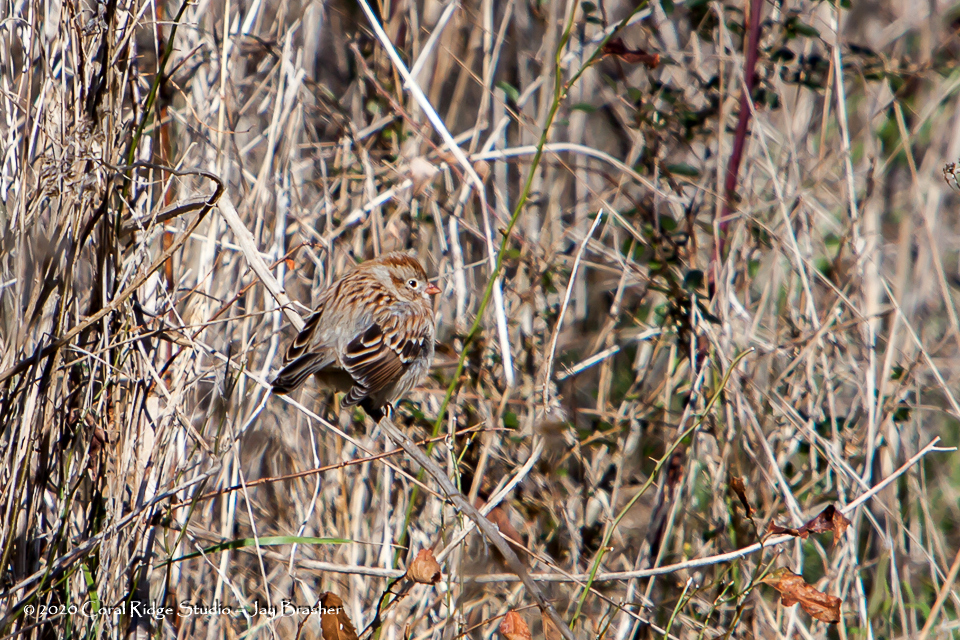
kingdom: Animalia
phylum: Chordata
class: Aves
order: Passeriformes
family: Passerellidae
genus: Spizella
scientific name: Spizella pusilla
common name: Field sparrow
